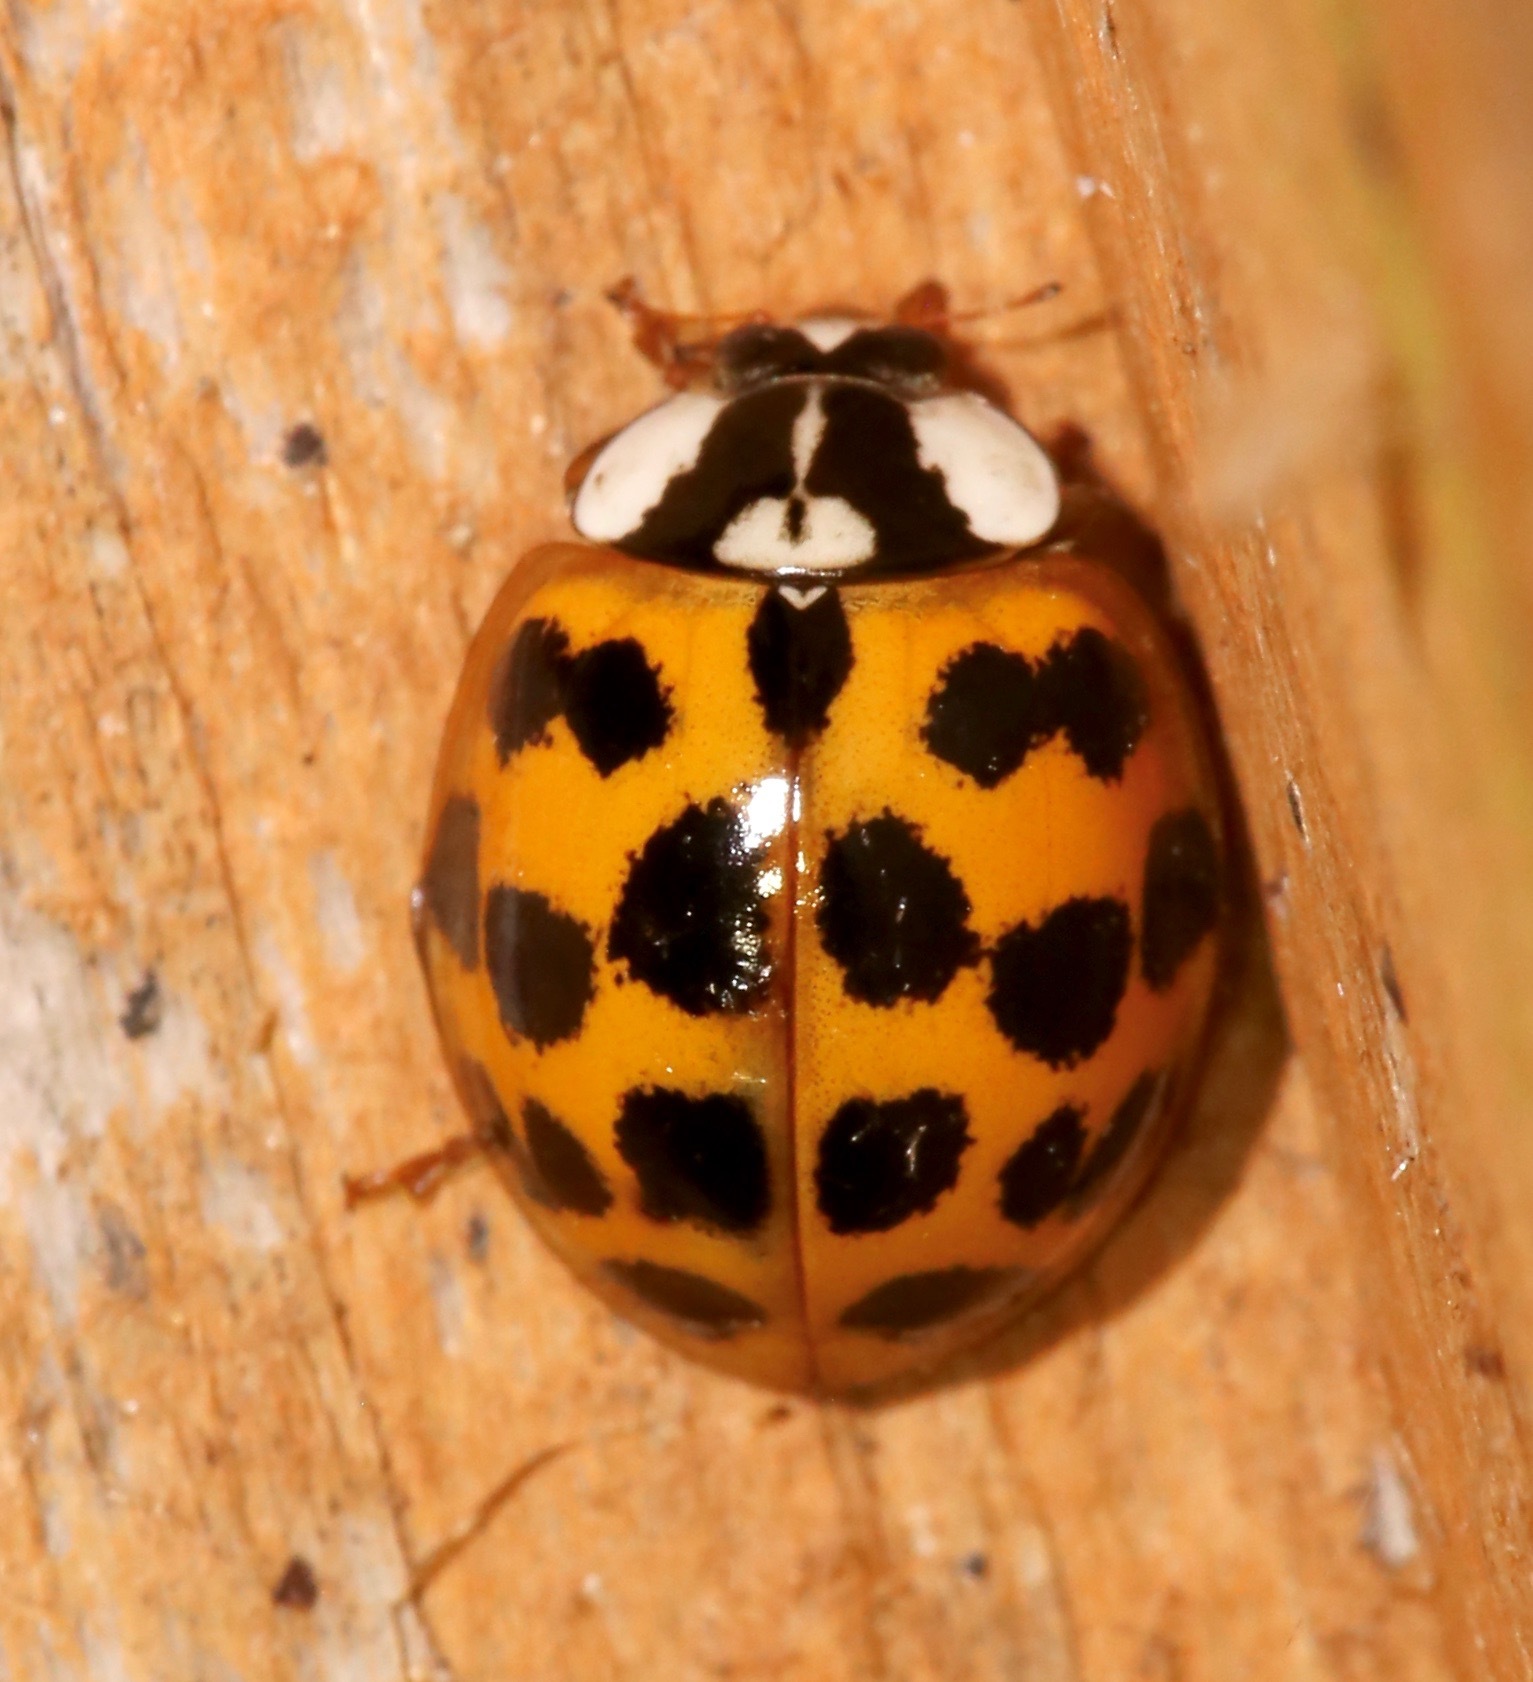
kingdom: Animalia
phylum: Arthropoda
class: Insecta
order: Coleoptera
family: Coccinellidae
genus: Harmonia
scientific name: Harmonia axyridis
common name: Harlequin ladybird
